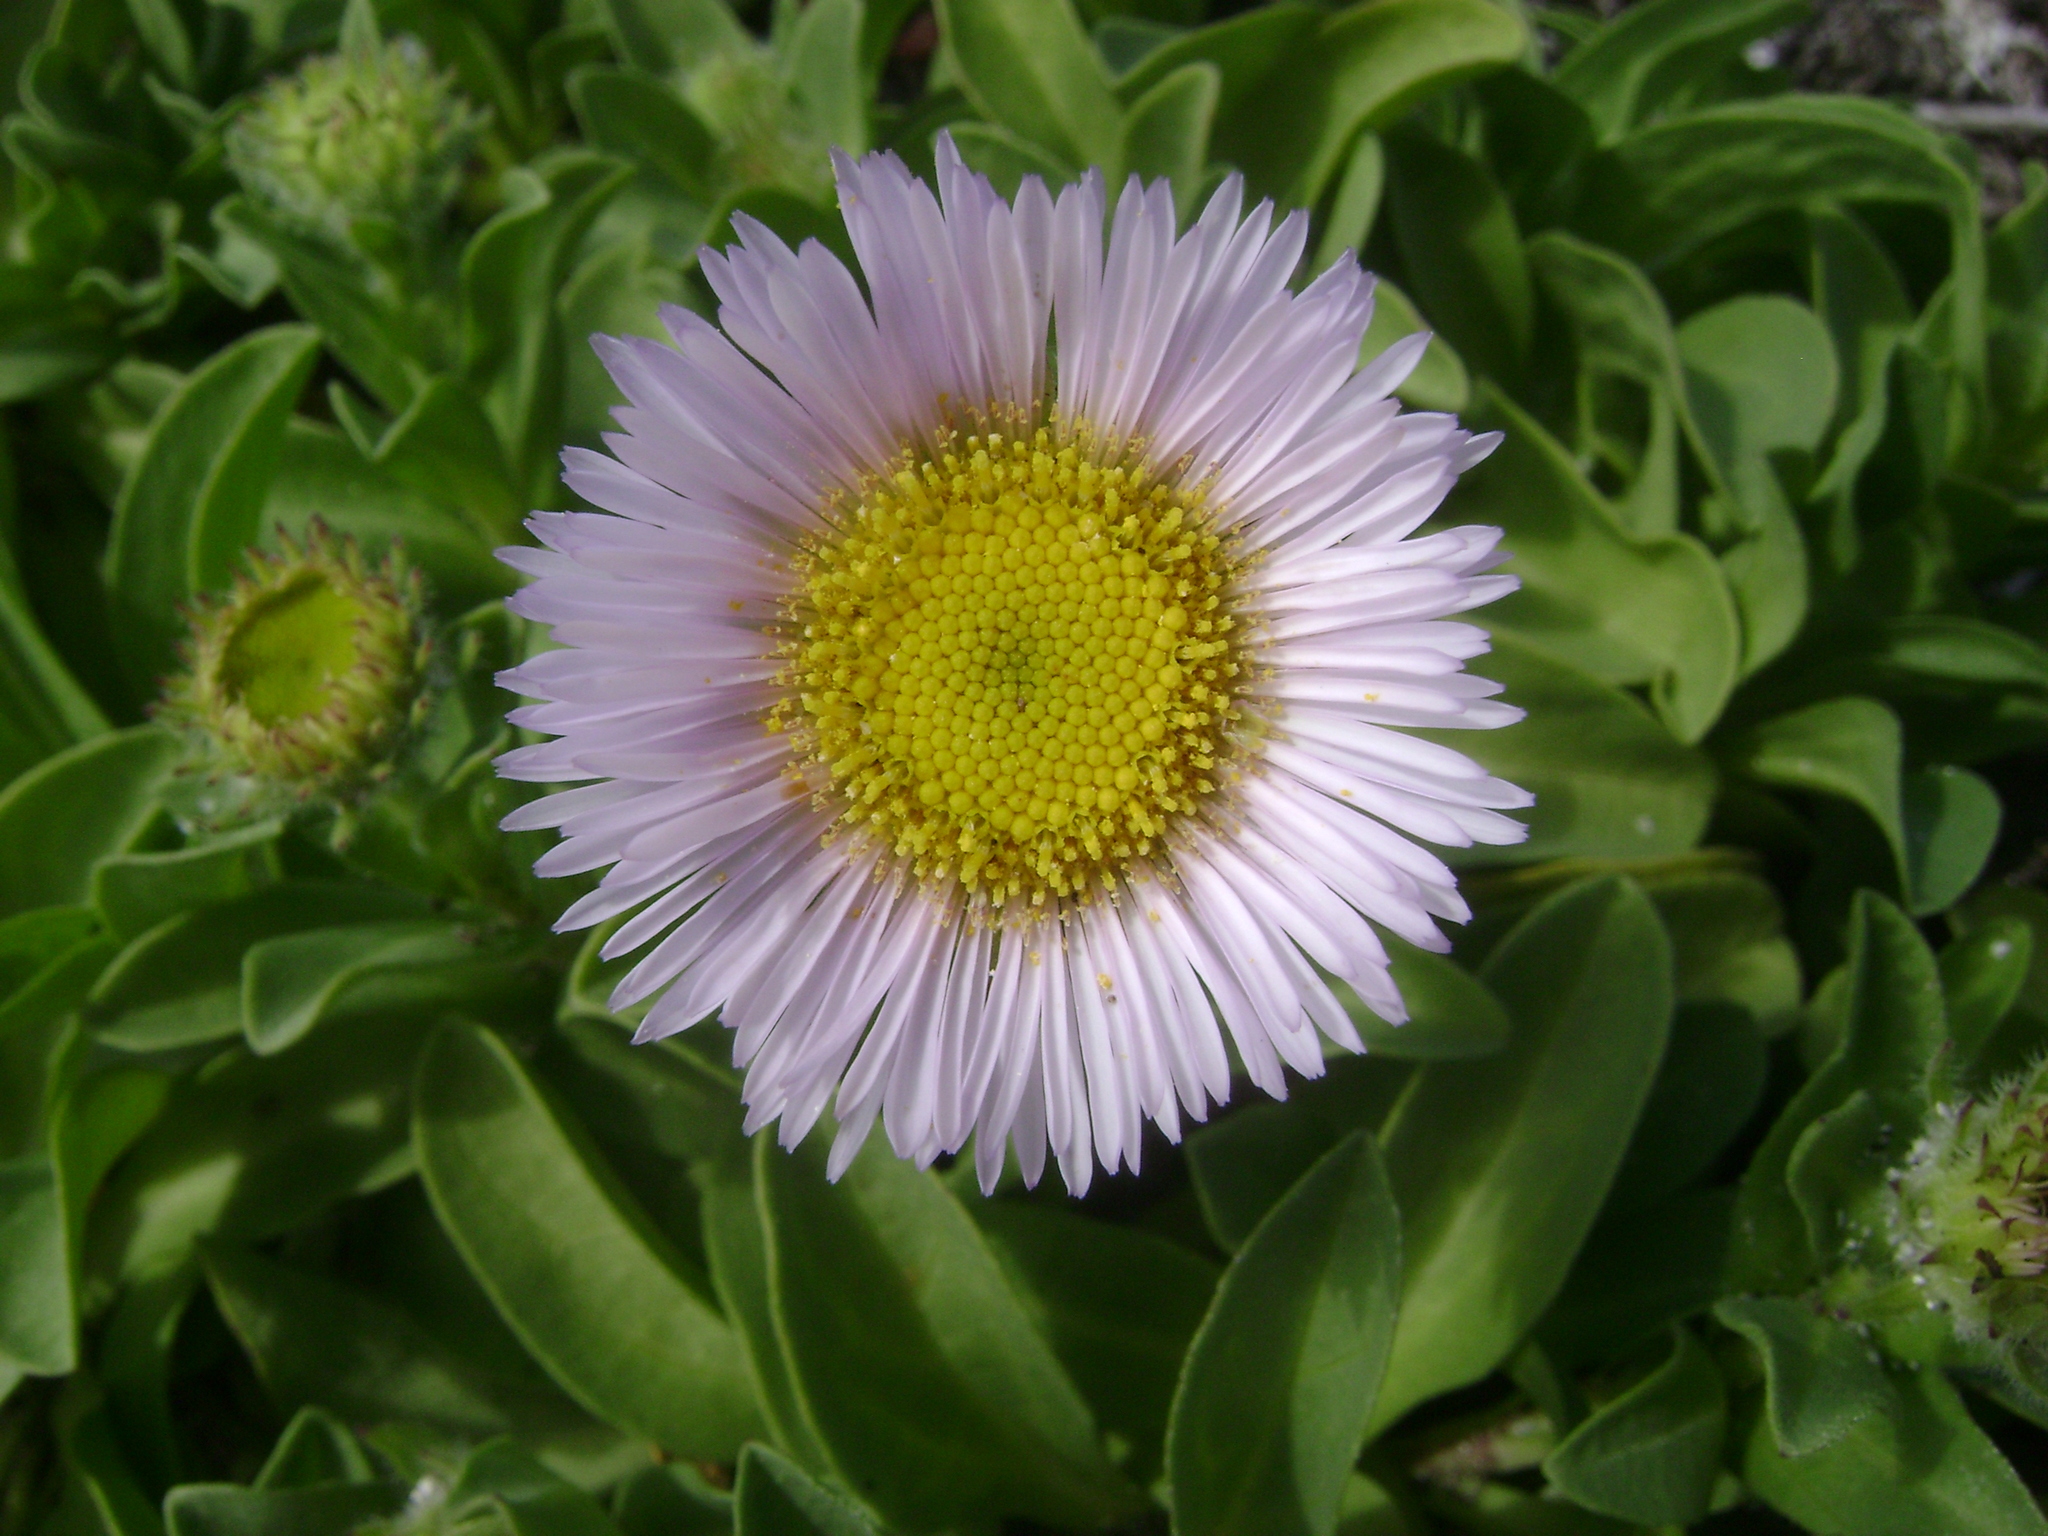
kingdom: Plantae
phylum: Tracheophyta
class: Magnoliopsida
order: Asterales
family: Asteraceae
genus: Erigeron
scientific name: Erigeron glaucus
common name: Seaside daisy
